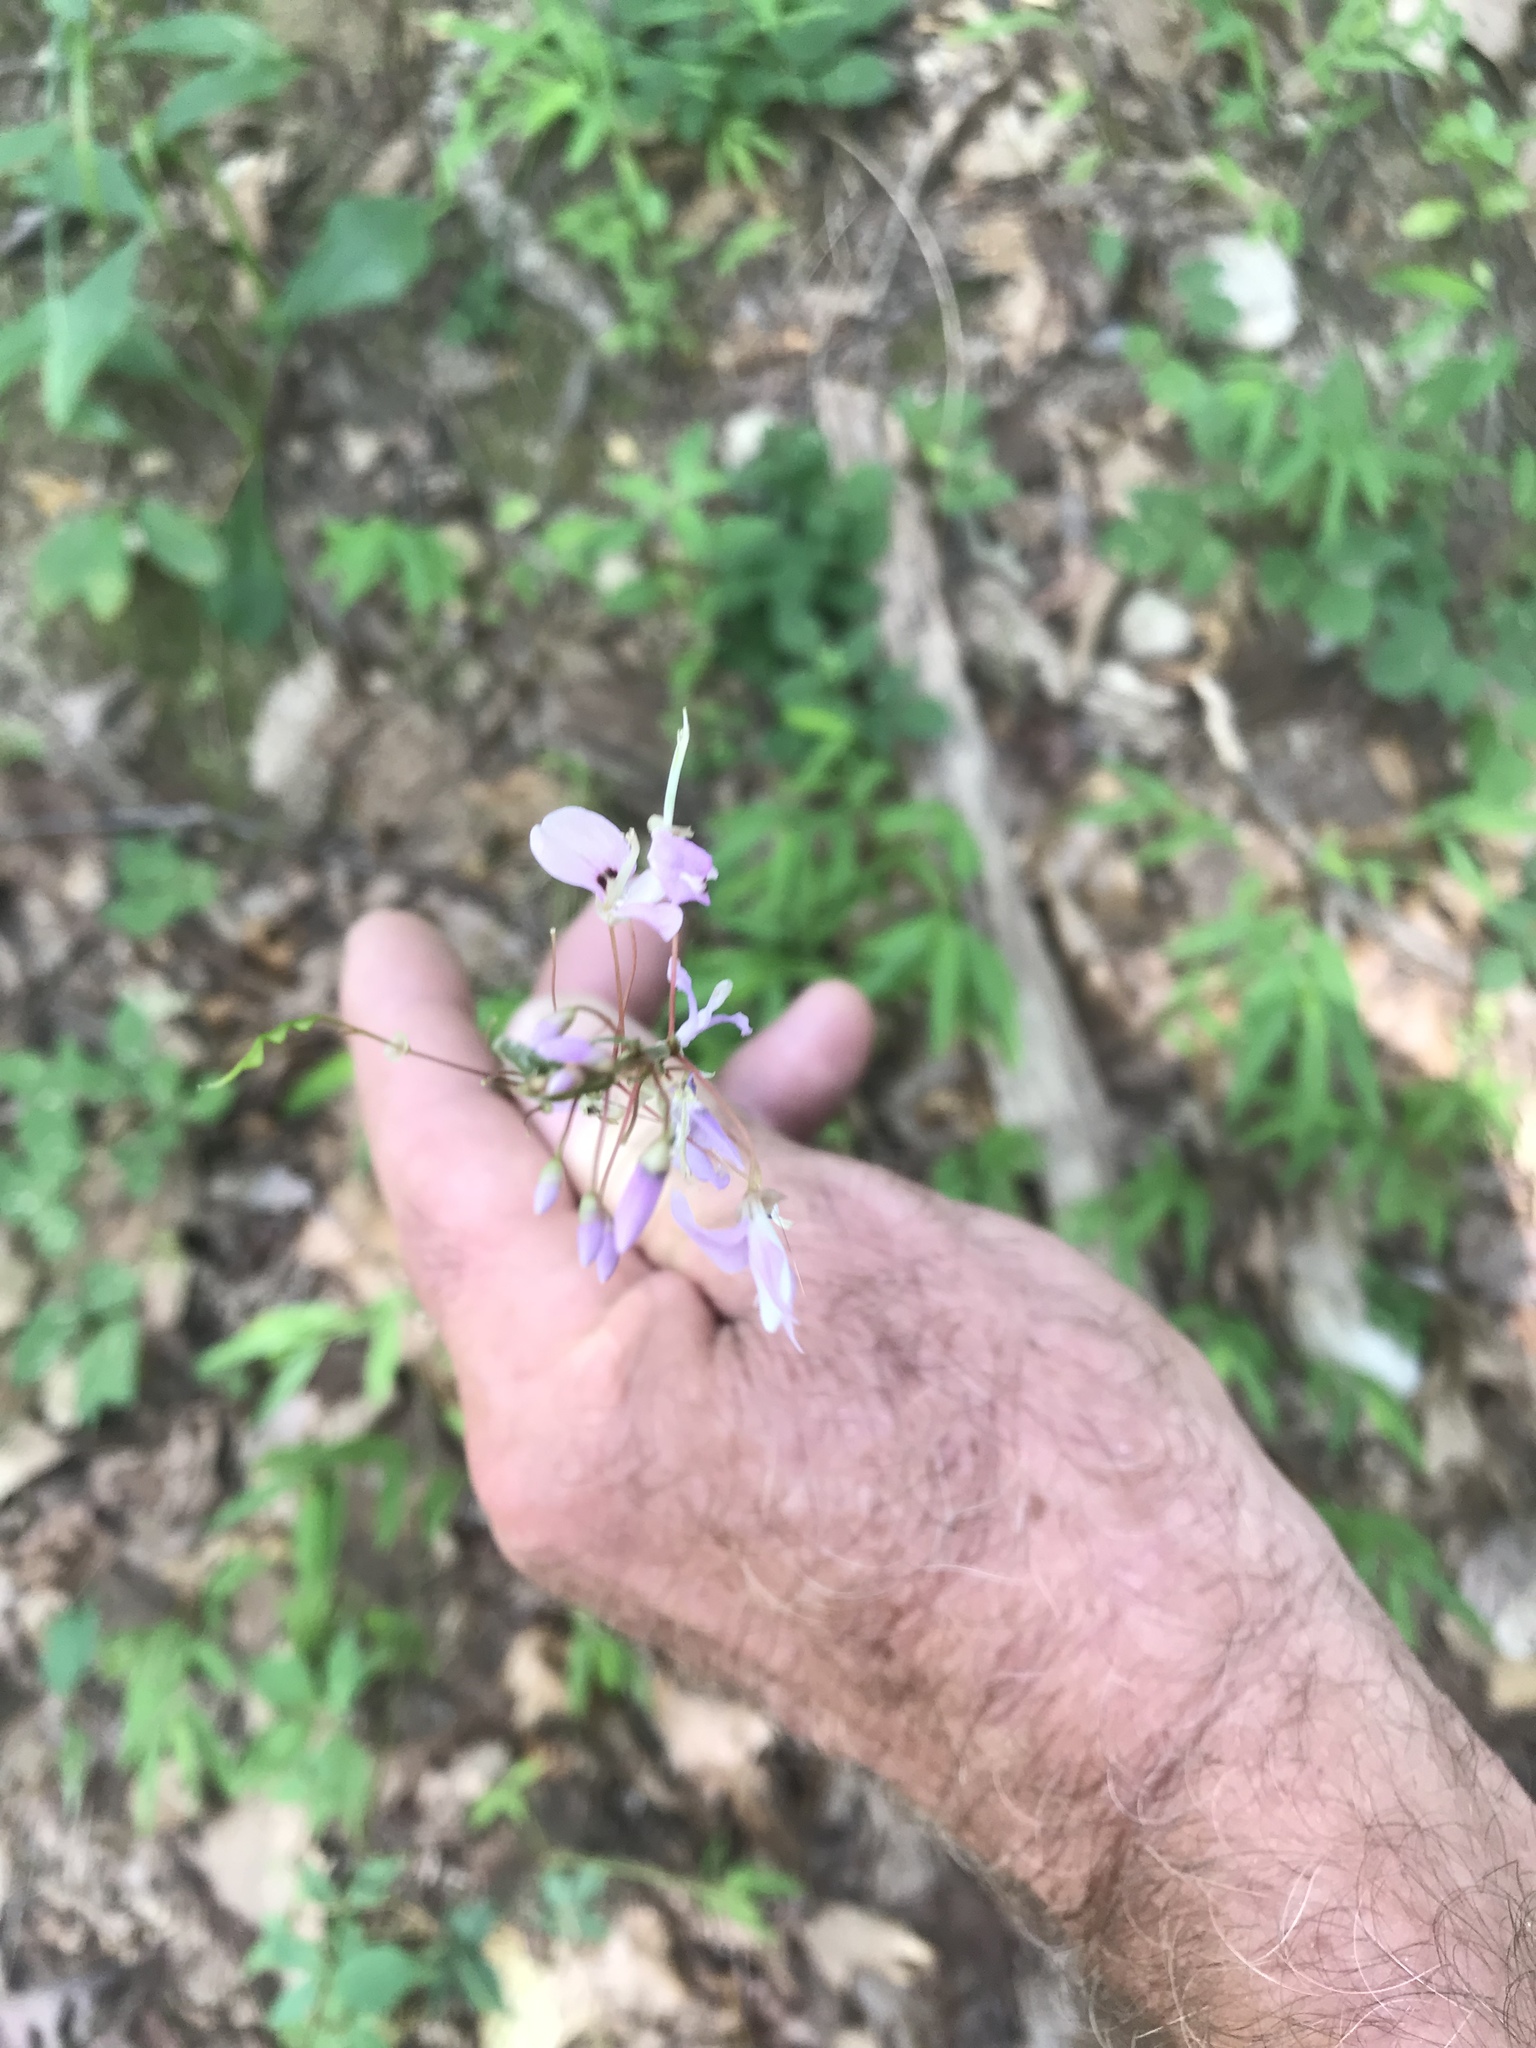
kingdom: Plantae
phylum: Tracheophyta
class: Magnoliopsida
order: Fabales
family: Fabaceae
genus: Hylodesmum
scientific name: Hylodesmum nudiflorum
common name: Bare-stemmed tick-trefoil
